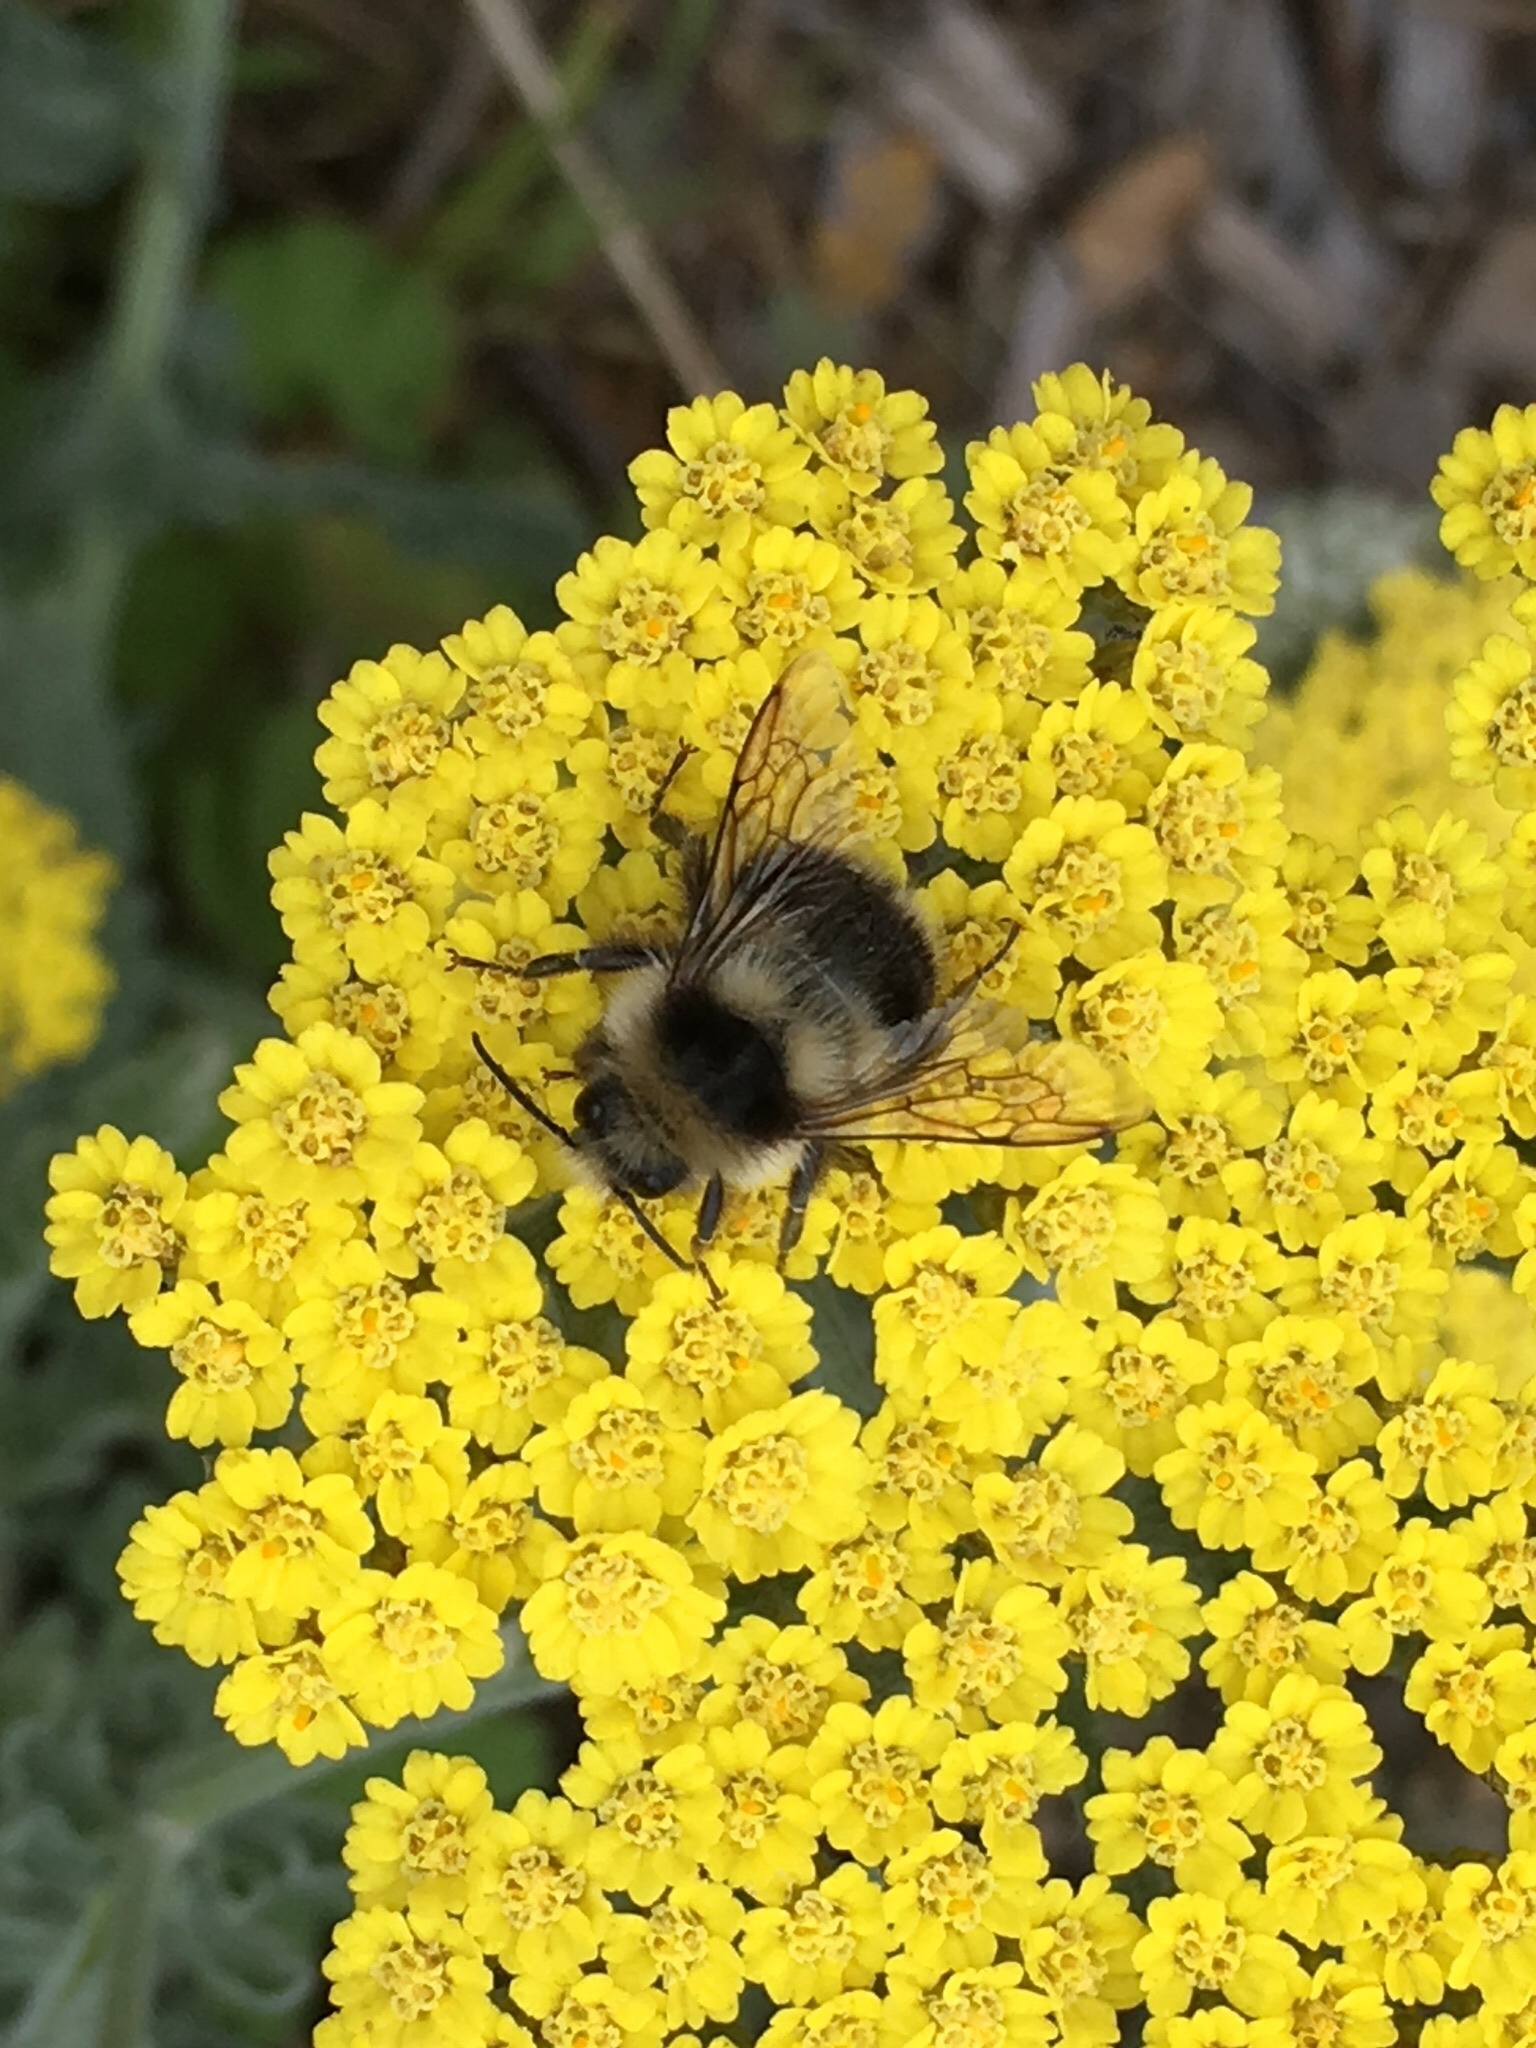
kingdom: Animalia
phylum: Arthropoda
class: Insecta
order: Hymenoptera
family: Apidae
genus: Bombus
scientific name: Bombus melanopygus
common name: Black tail bumble bee
